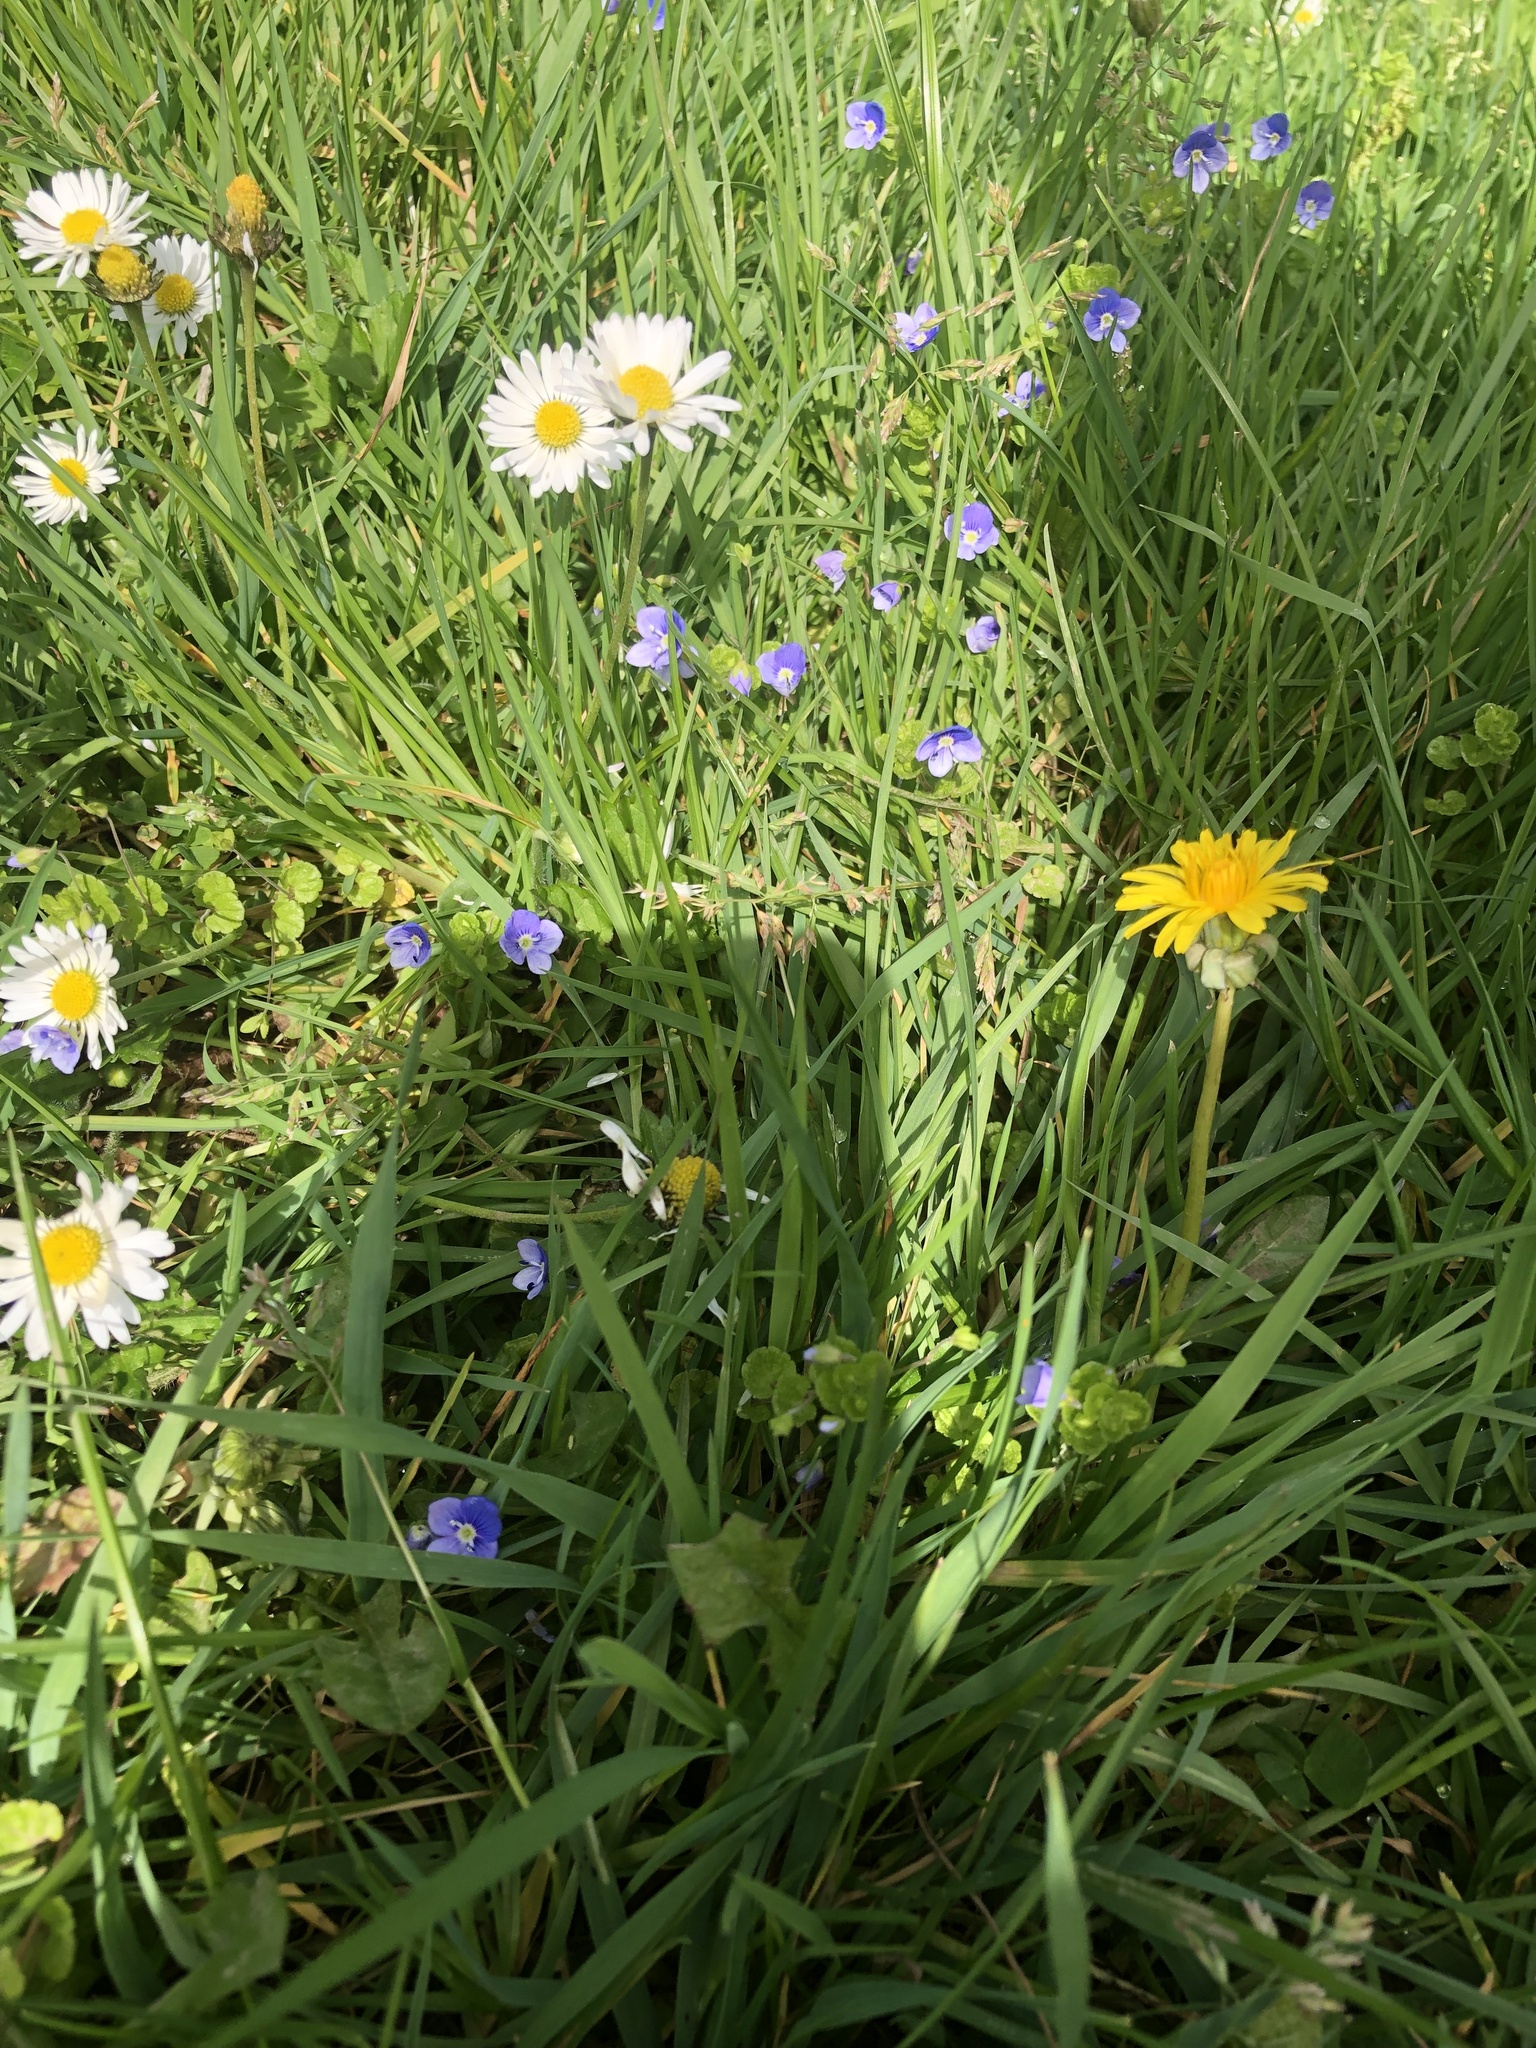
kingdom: Plantae
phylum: Tracheophyta
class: Magnoliopsida
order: Asterales
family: Asteraceae
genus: Bellis
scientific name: Bellis perennis
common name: Lawndaisy
